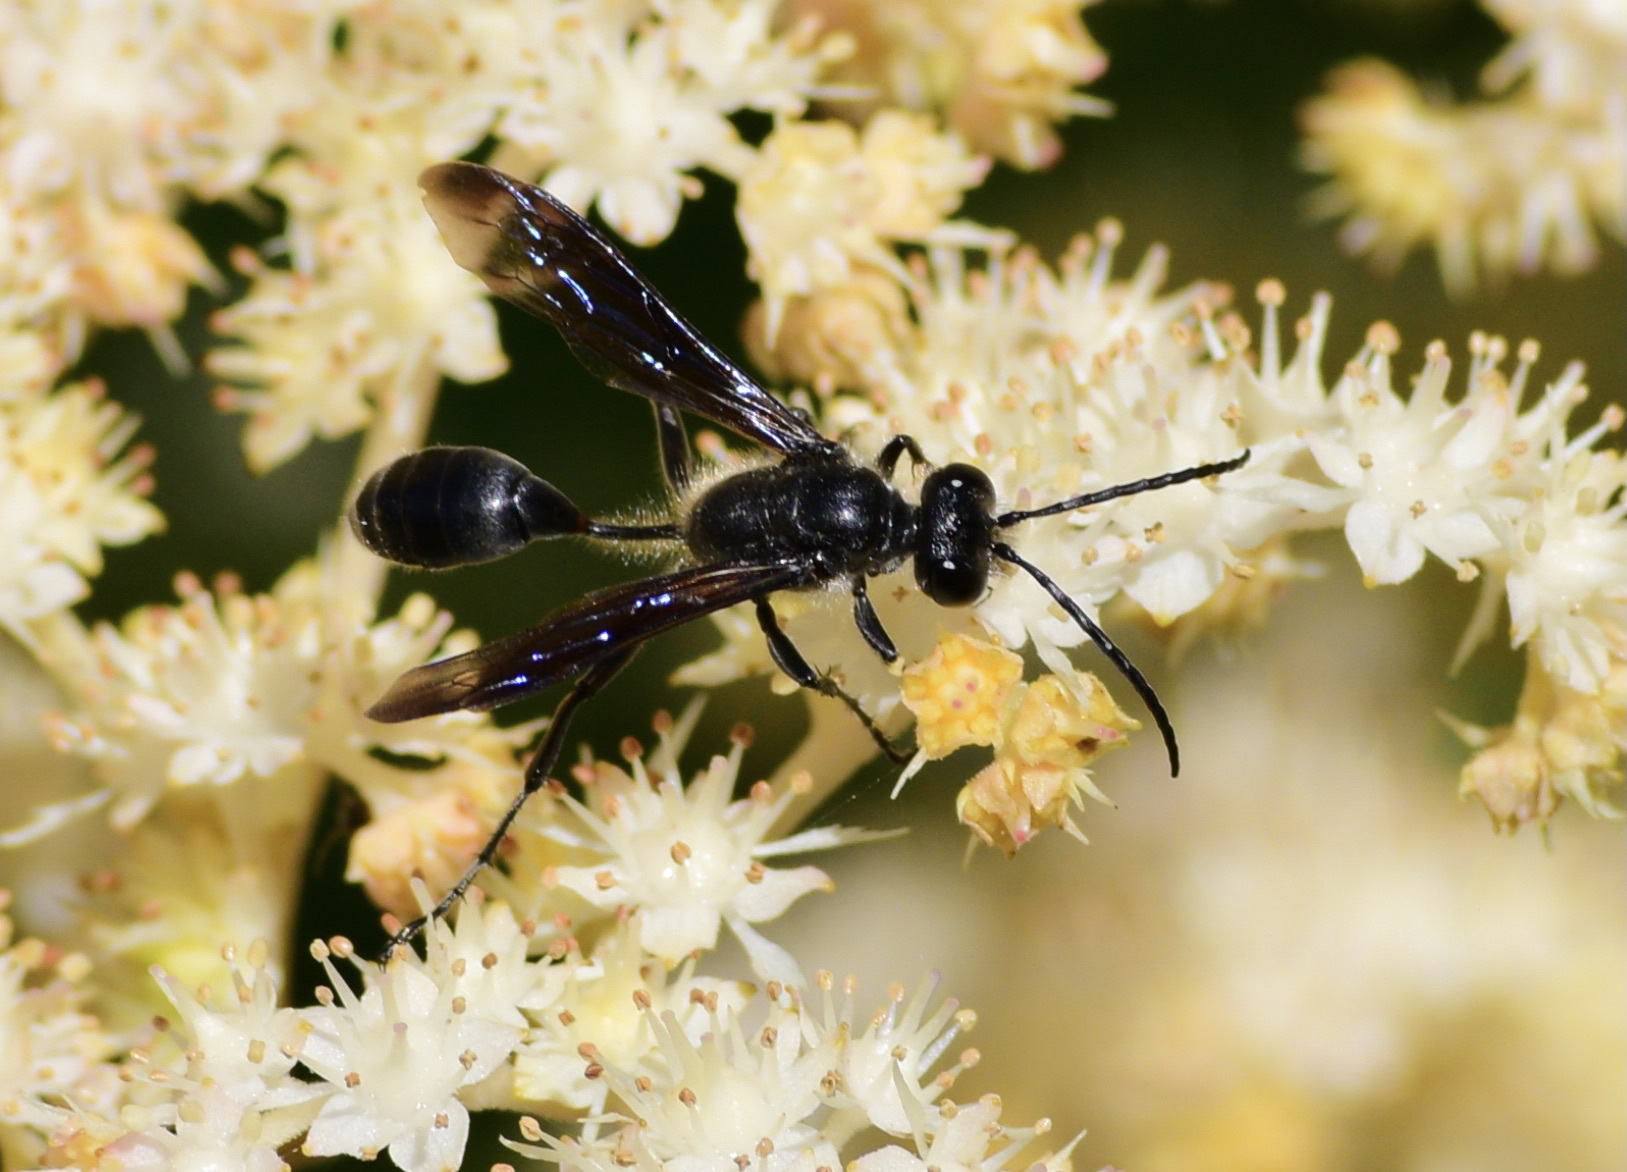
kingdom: Animalia
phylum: Arthropoda
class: Insecta
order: Hymenoptera
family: Sphecidae
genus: Isodontia
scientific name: Isodontia mexicana
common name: Mud dauber
